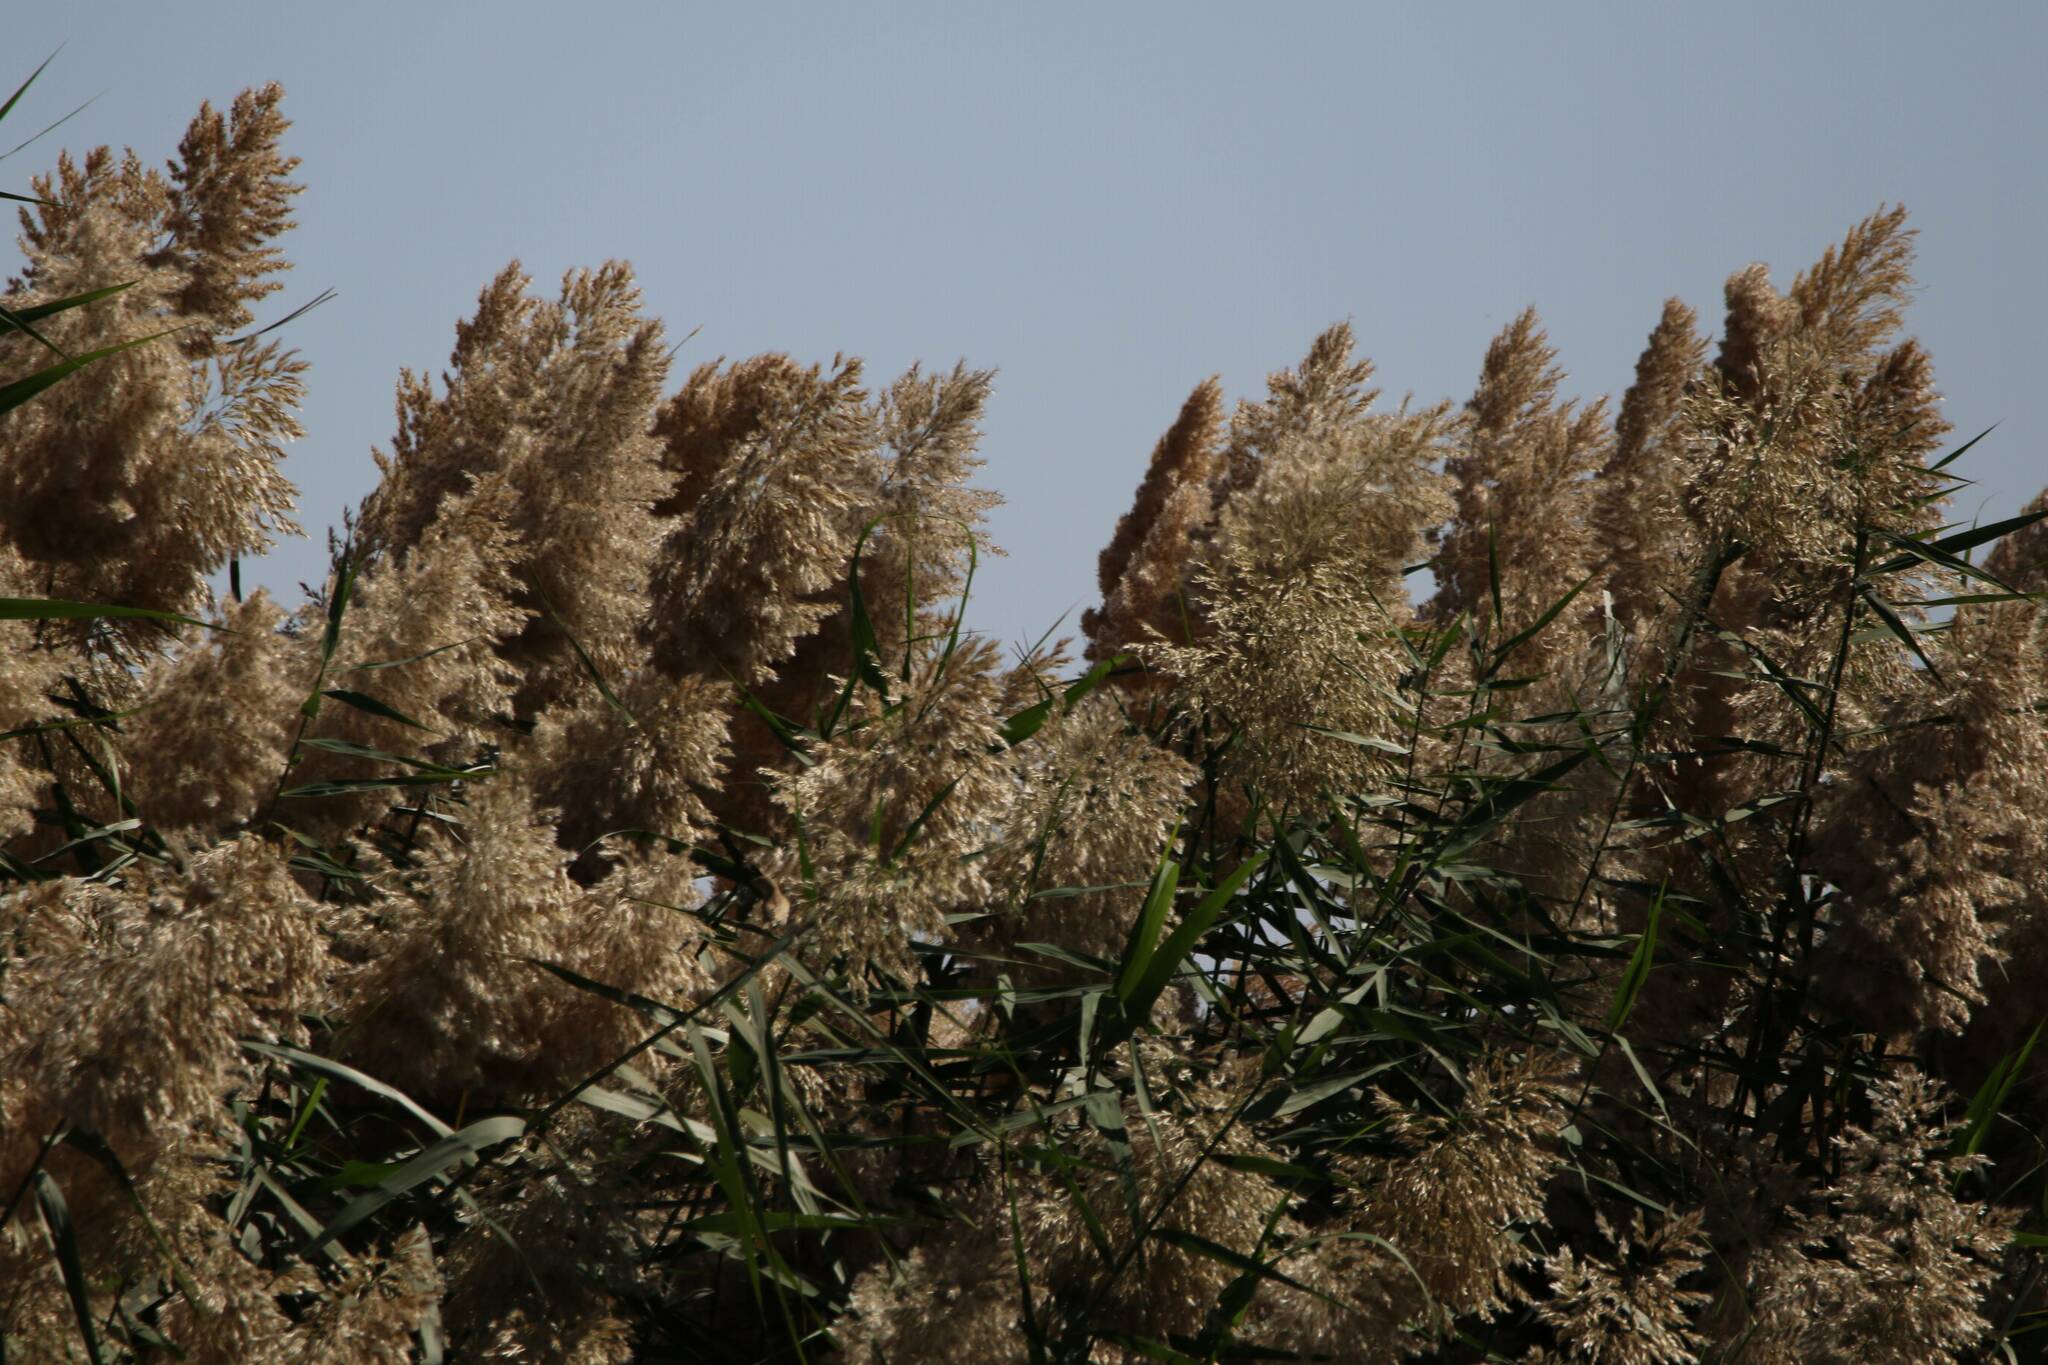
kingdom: Plantae
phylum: Tracheophyta
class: Liliopsida
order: Poales
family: Poaceae
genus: Phragmites
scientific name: Phragmites australis
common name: Common reed
